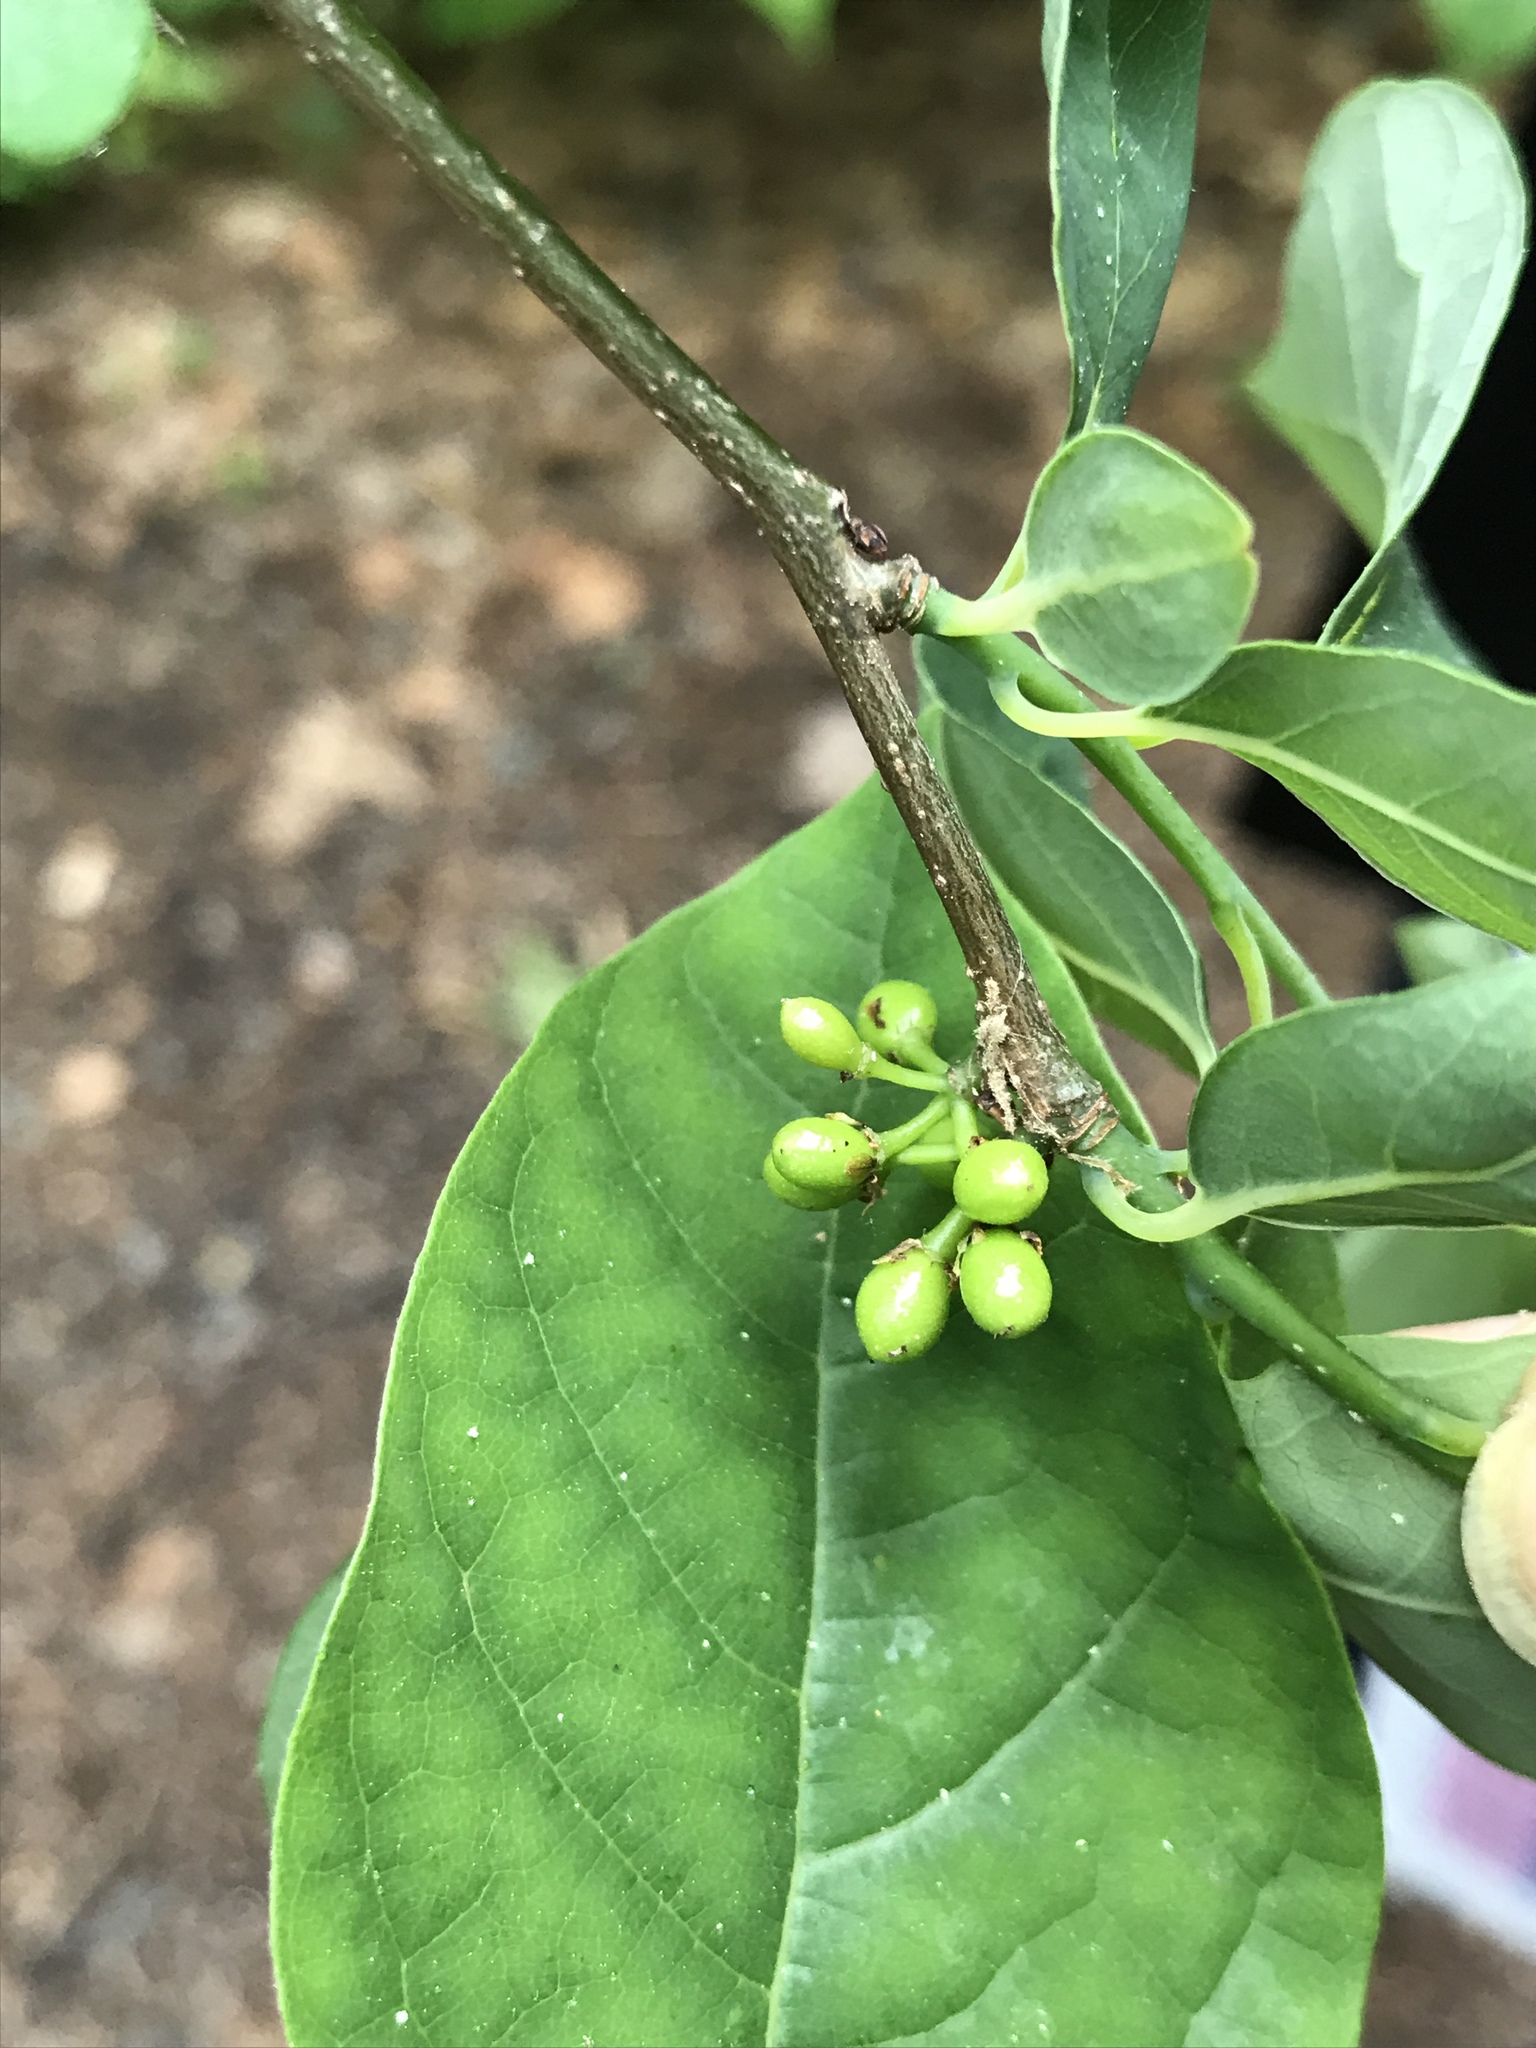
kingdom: Plantae
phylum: Tracheophyta
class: Magnoliopsida
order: Laurales
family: Lauraceae
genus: Lindera
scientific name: Lindera benzoin
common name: Spicebush
